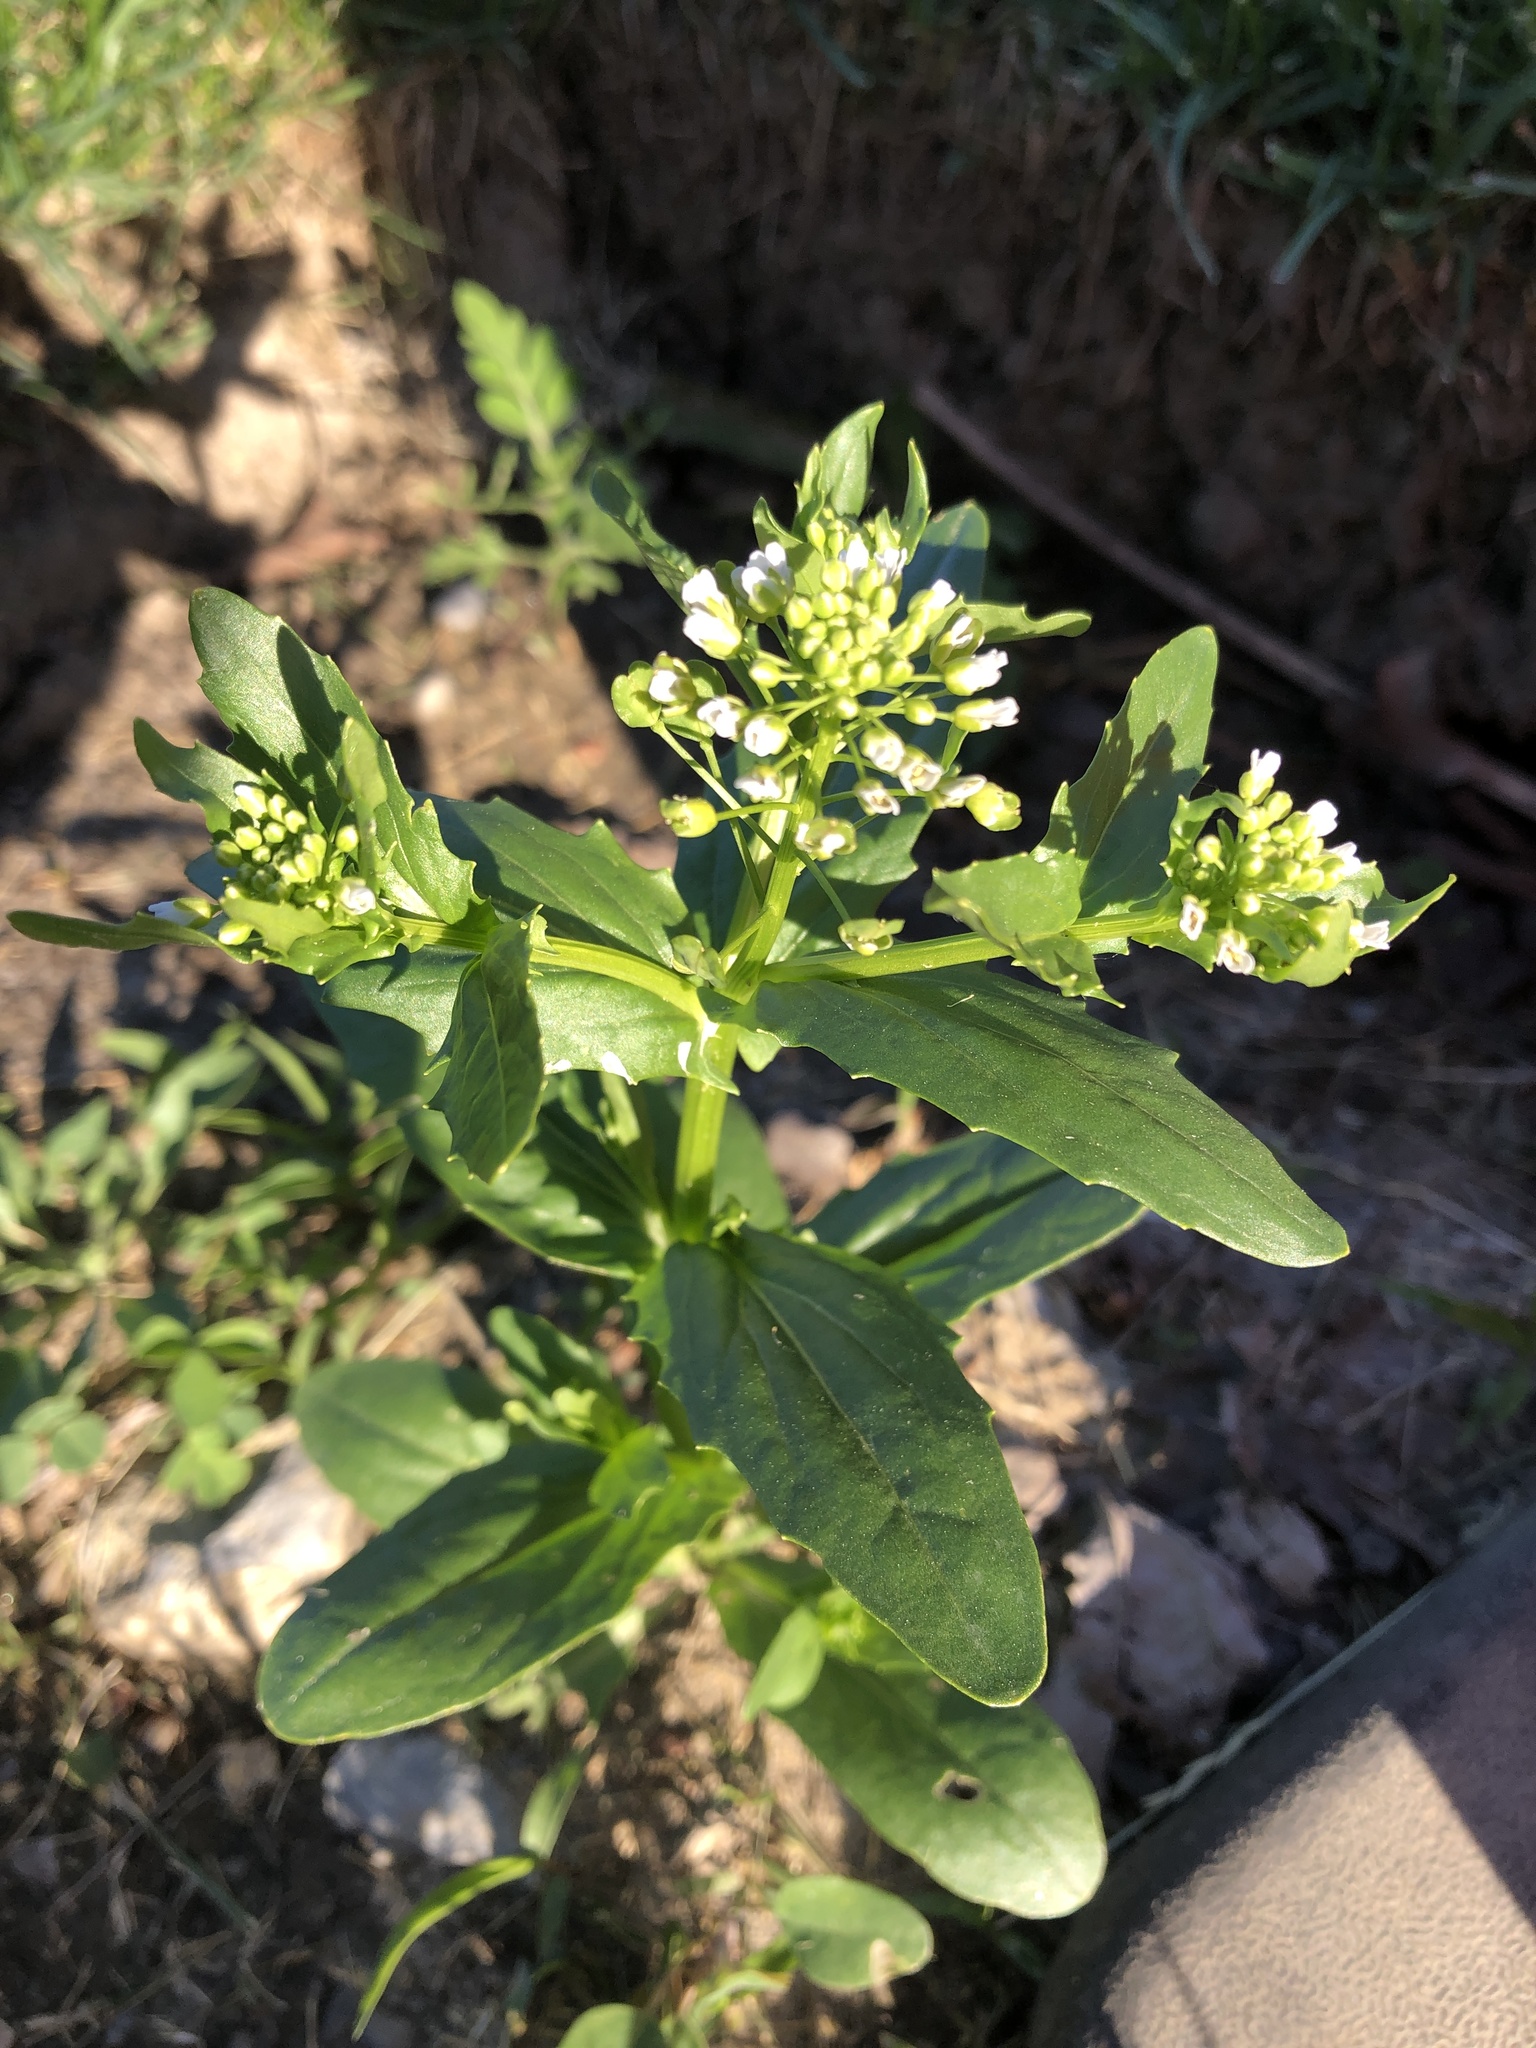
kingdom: Plantae
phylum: Tracheophyta
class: Magnoliopsida
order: Brassicales
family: Brassicaceae
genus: Thlaspi
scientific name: Thlaspi arvense
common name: Field pennycress
